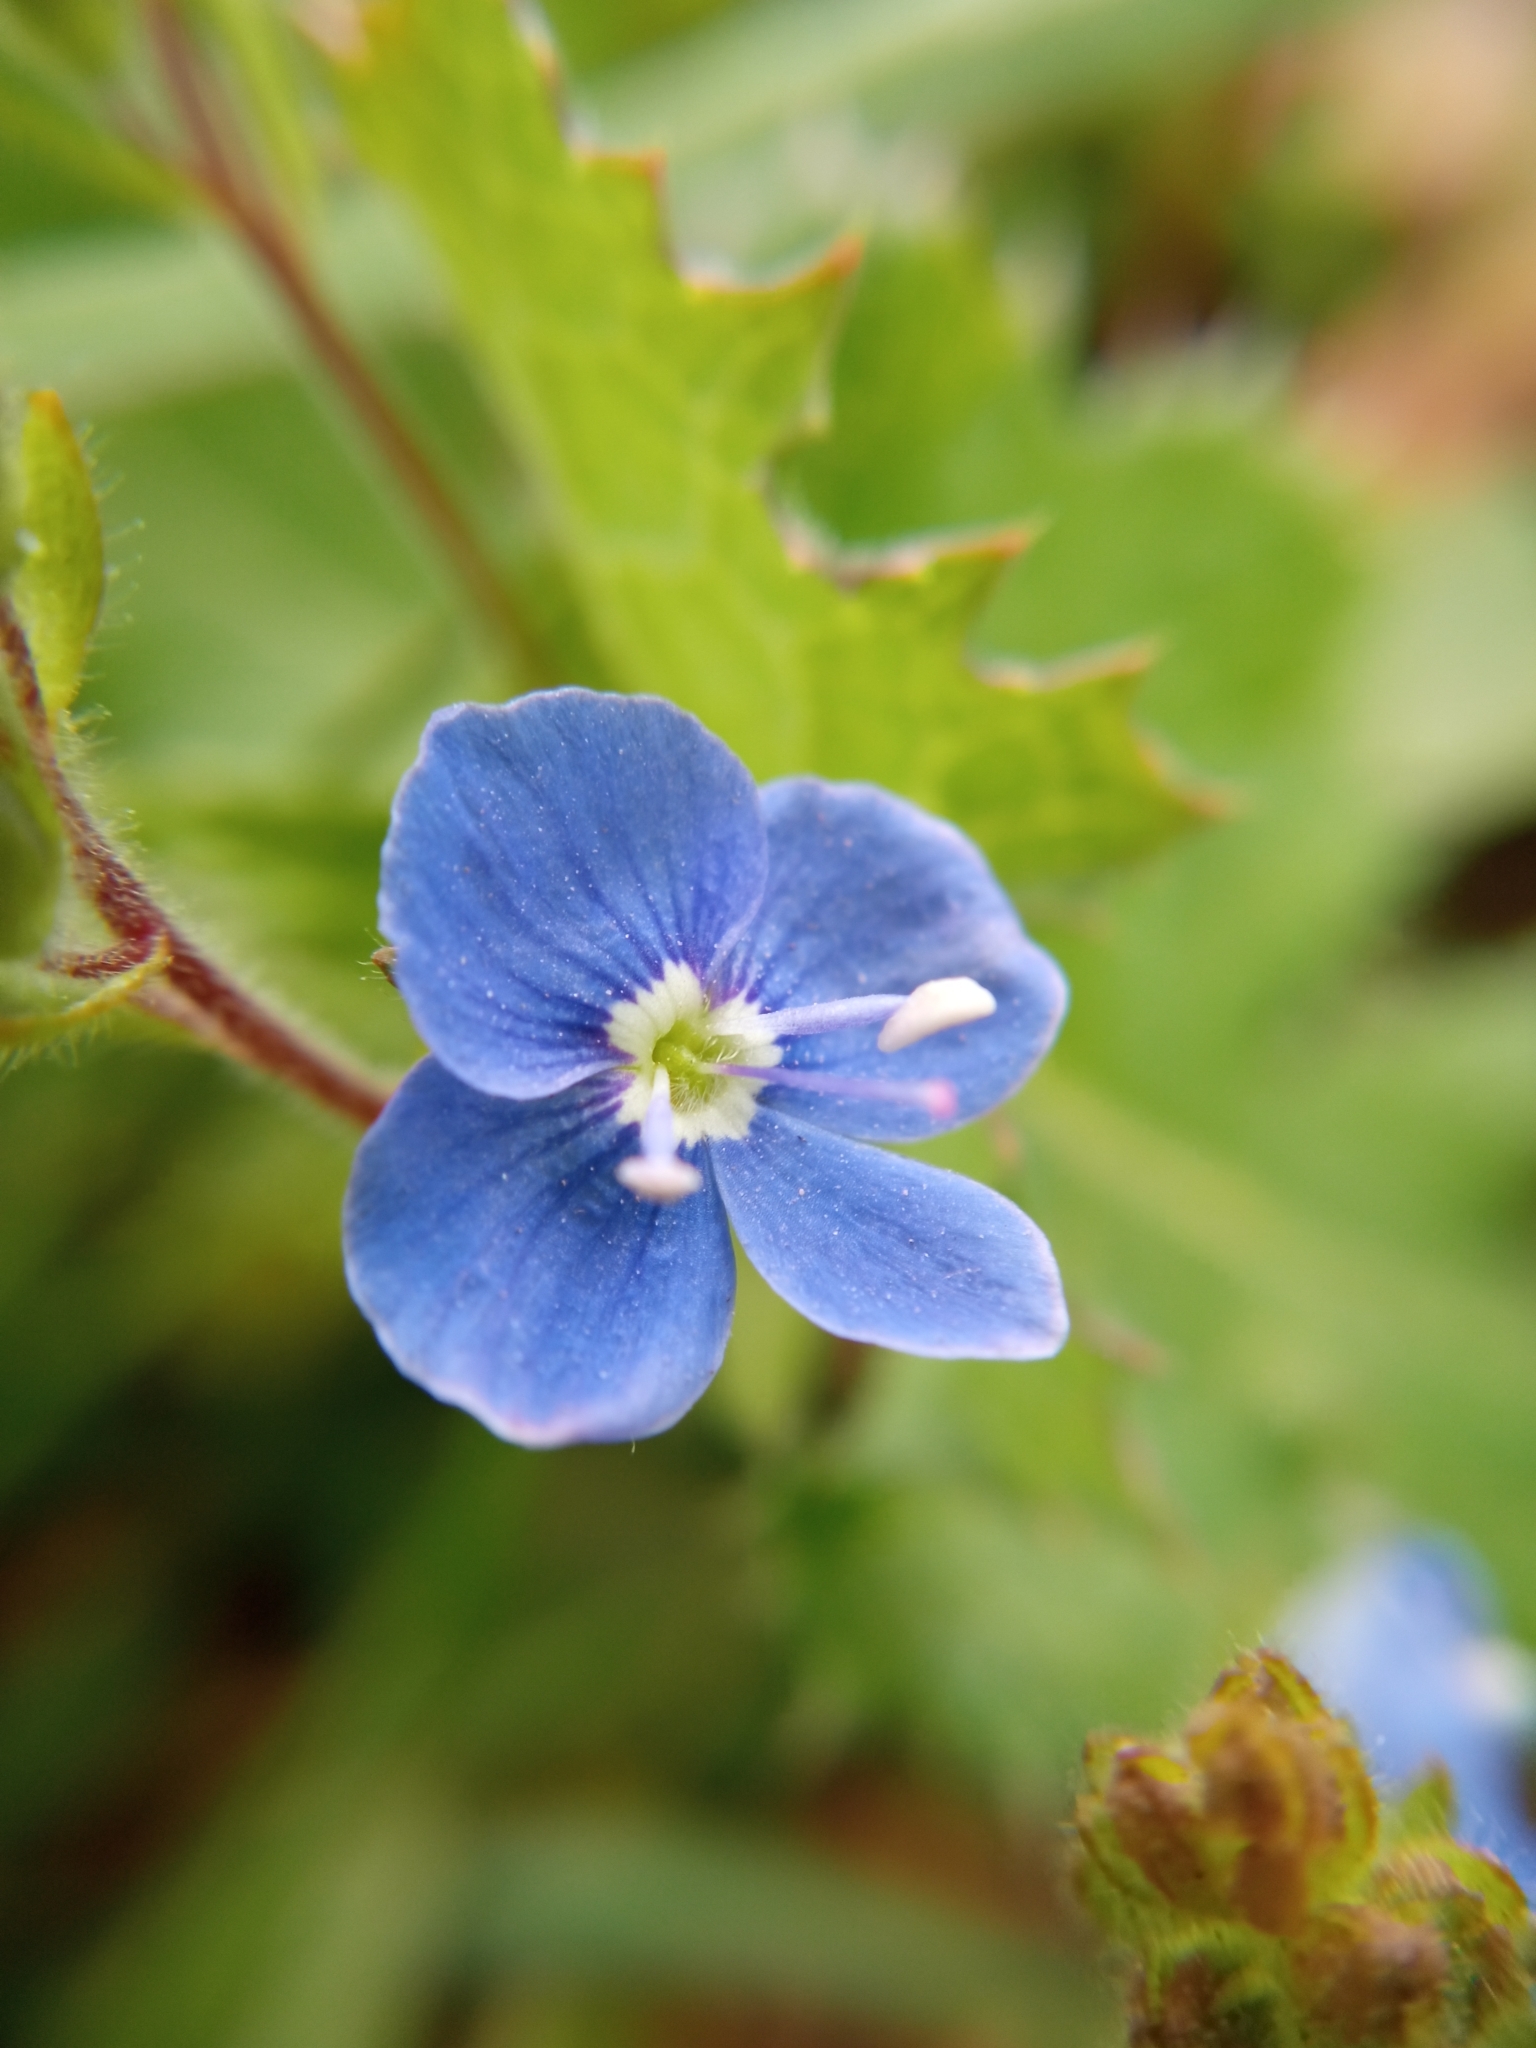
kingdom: Plantae
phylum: Tracheophyta
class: Magnoliopsida
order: Lamiales
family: Plantaginaceae
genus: Veronica
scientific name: Veronica chamaedrys
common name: Germander speedwell
